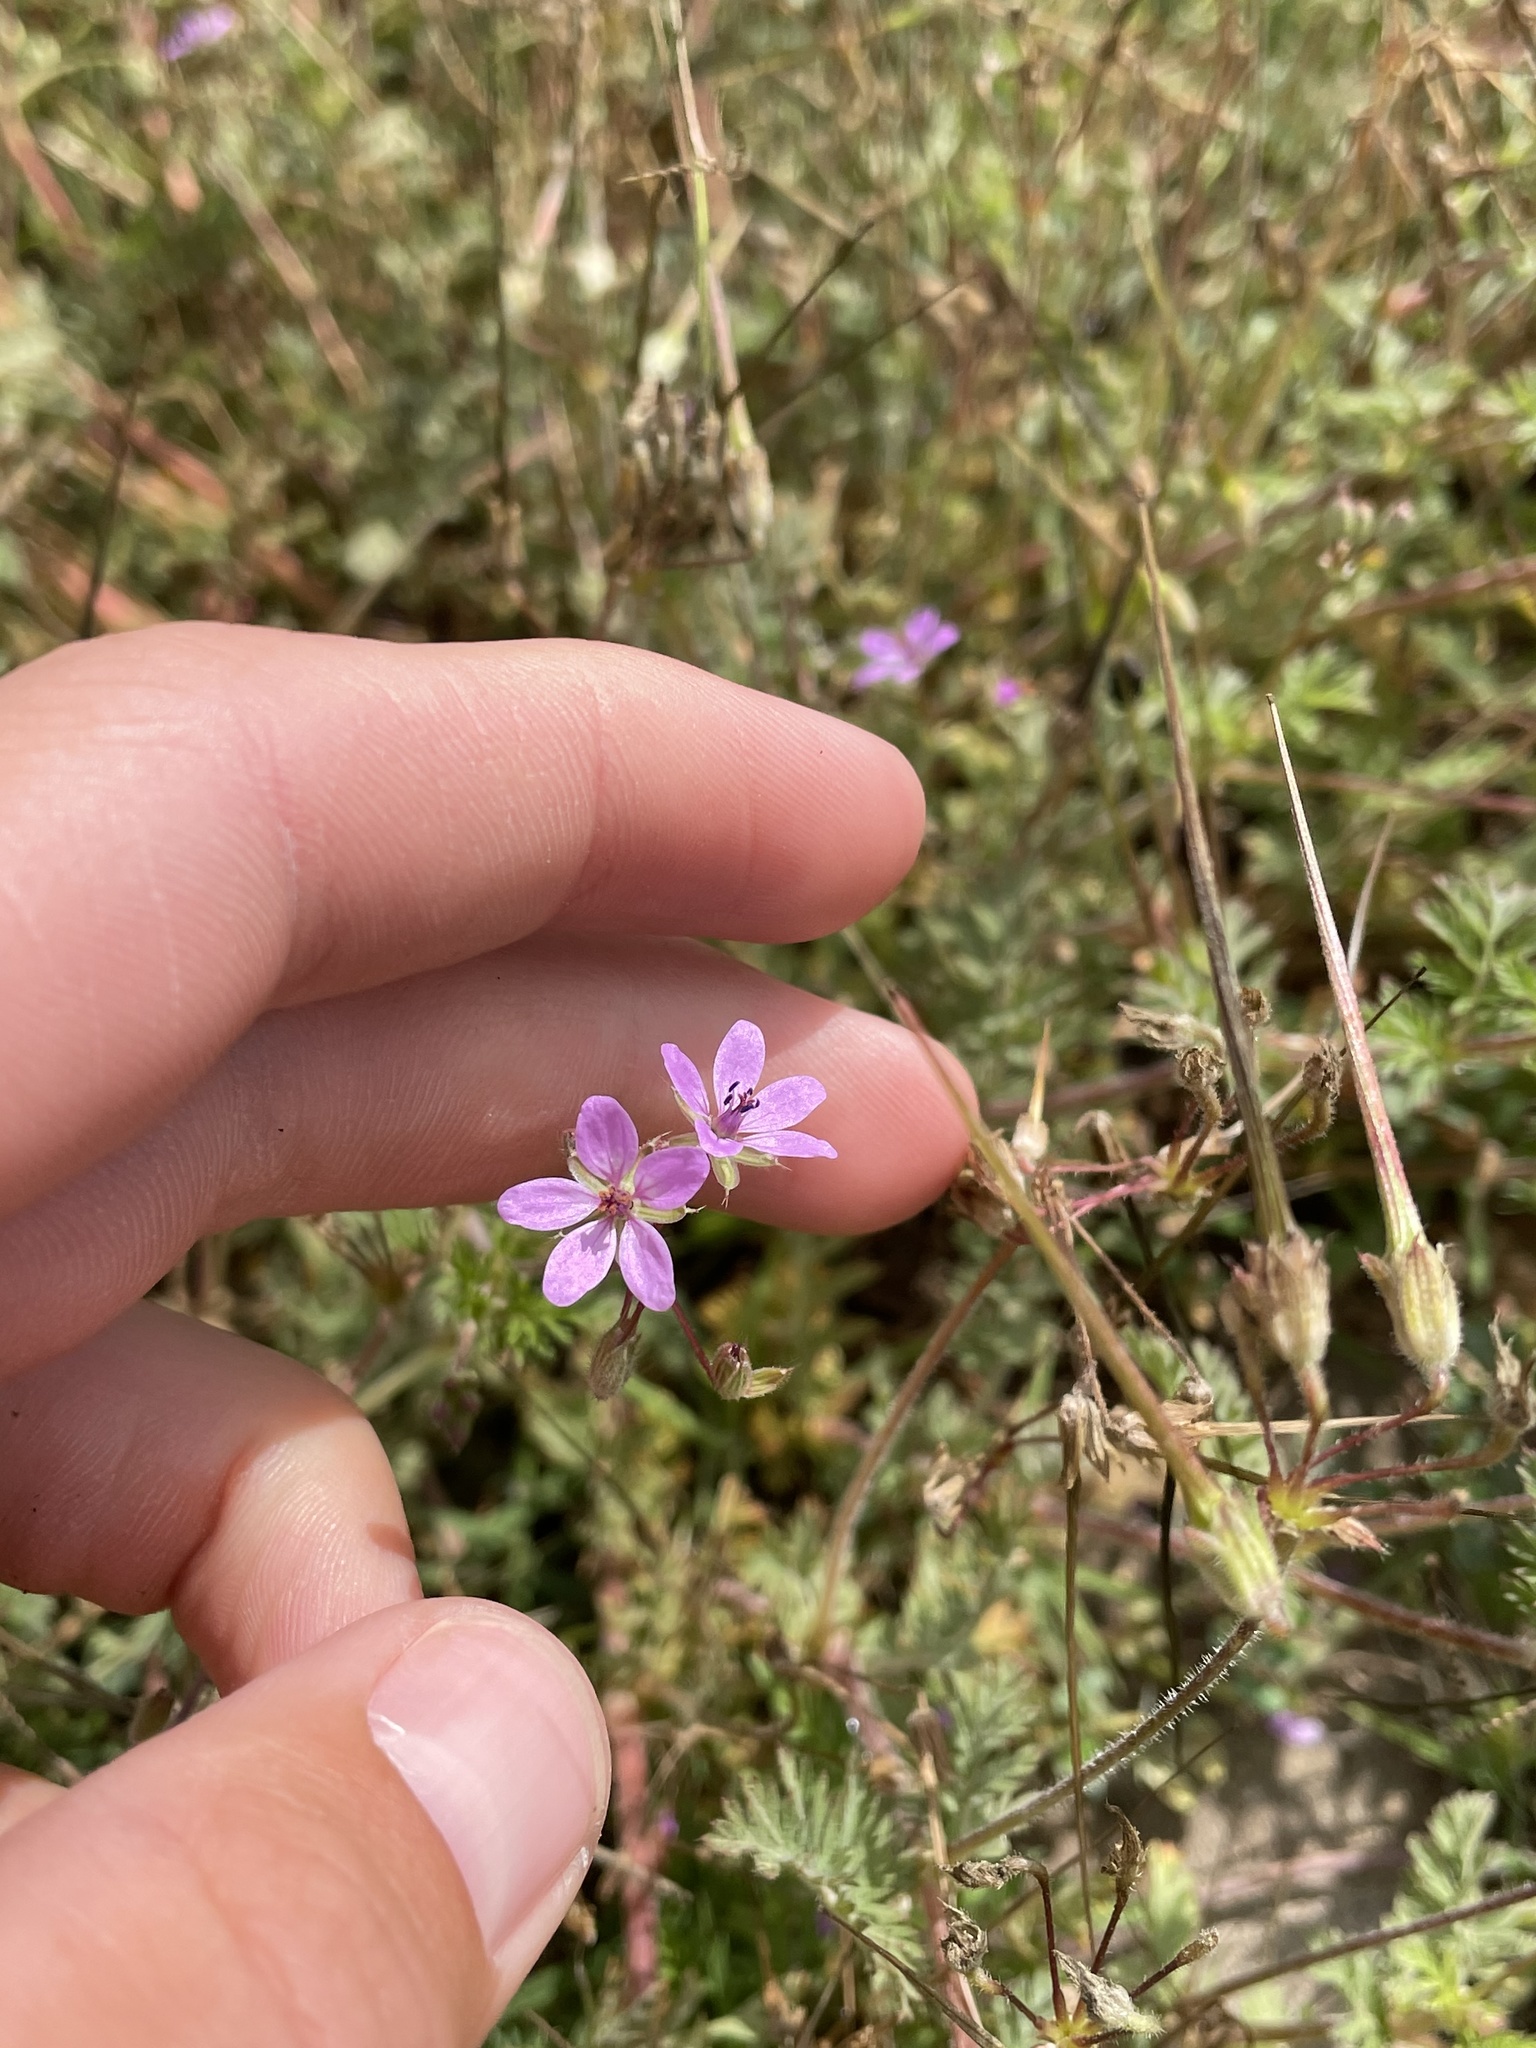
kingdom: Plantae
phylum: Tracheophyta
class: Magnoliopsida
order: Geraniales
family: Geraniaceae
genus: Erodium
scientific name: Erodium cicutarium
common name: Common stork's-bill
